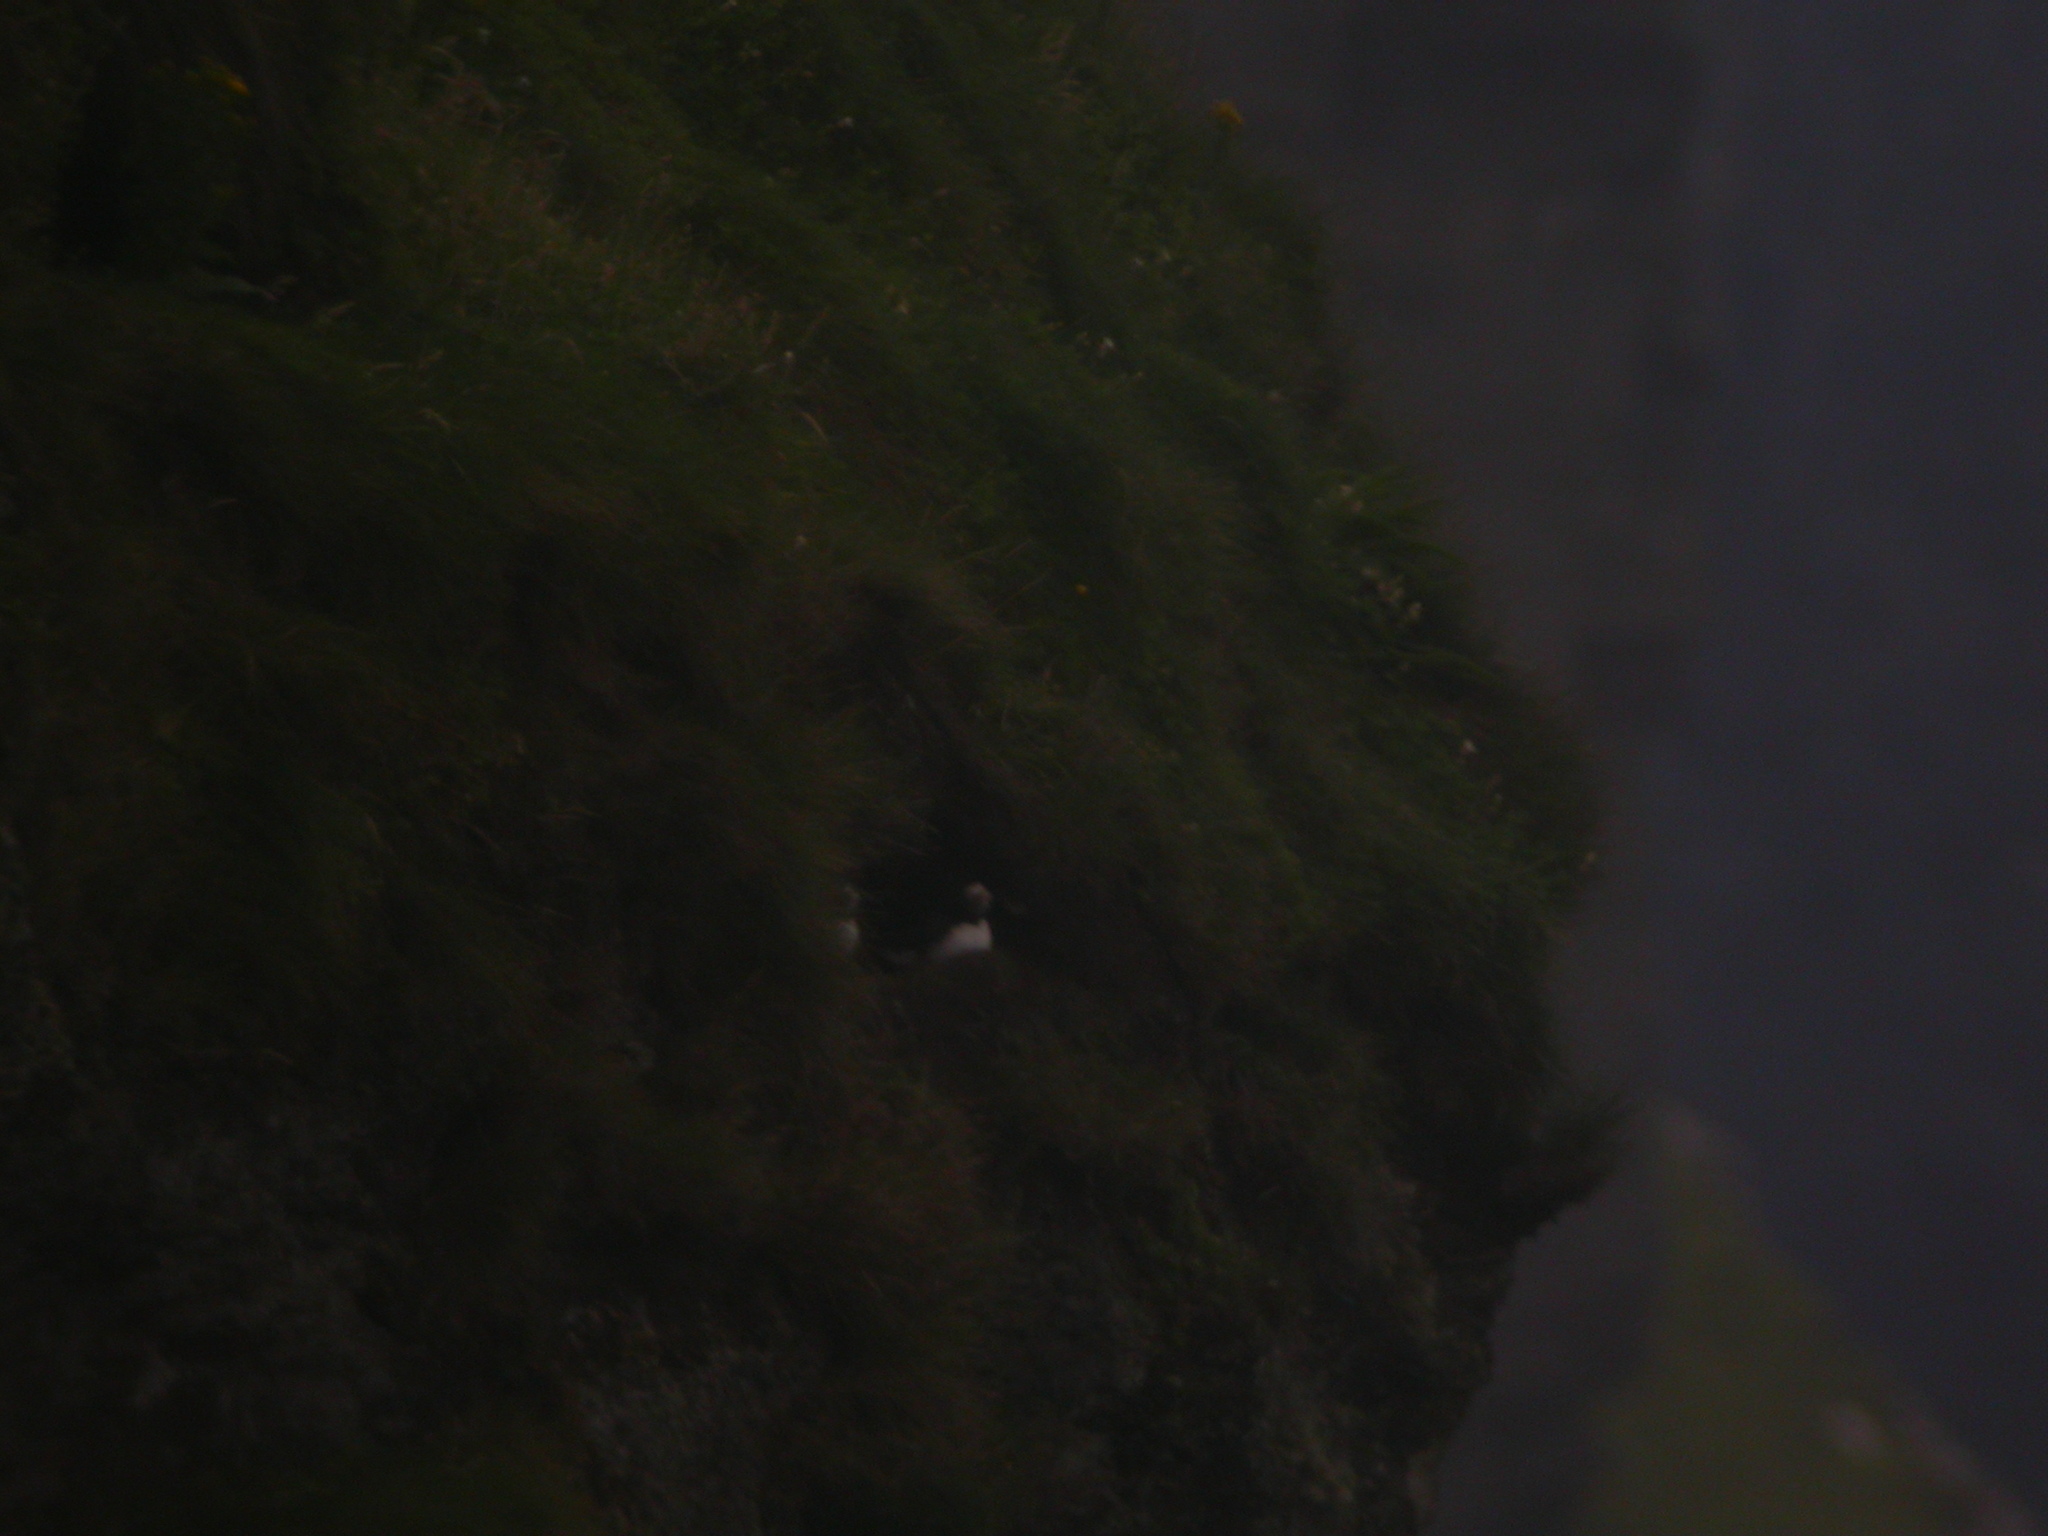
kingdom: Animalia
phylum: Chordata
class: Aves
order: Charadriiformes
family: Alcidae
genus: Fratercula
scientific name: Fratercula arctica
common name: Atlantic puffin
